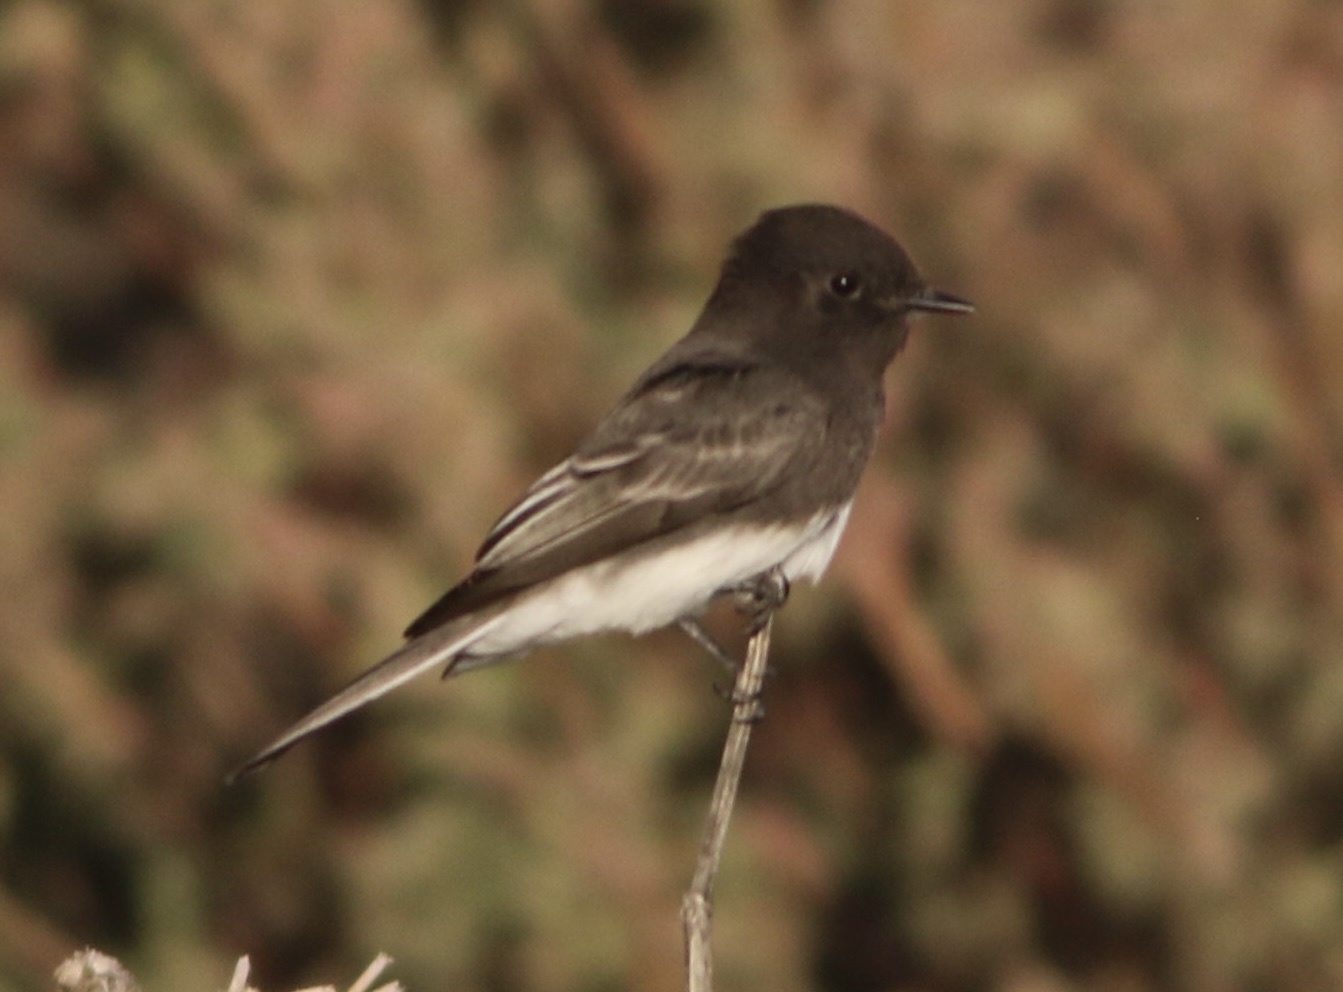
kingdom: Animalia
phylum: Chordata
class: Aves
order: Passeriformes
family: Tyrannidae
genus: Sayornis
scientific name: Sayornis nigricans
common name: Black phoebe
